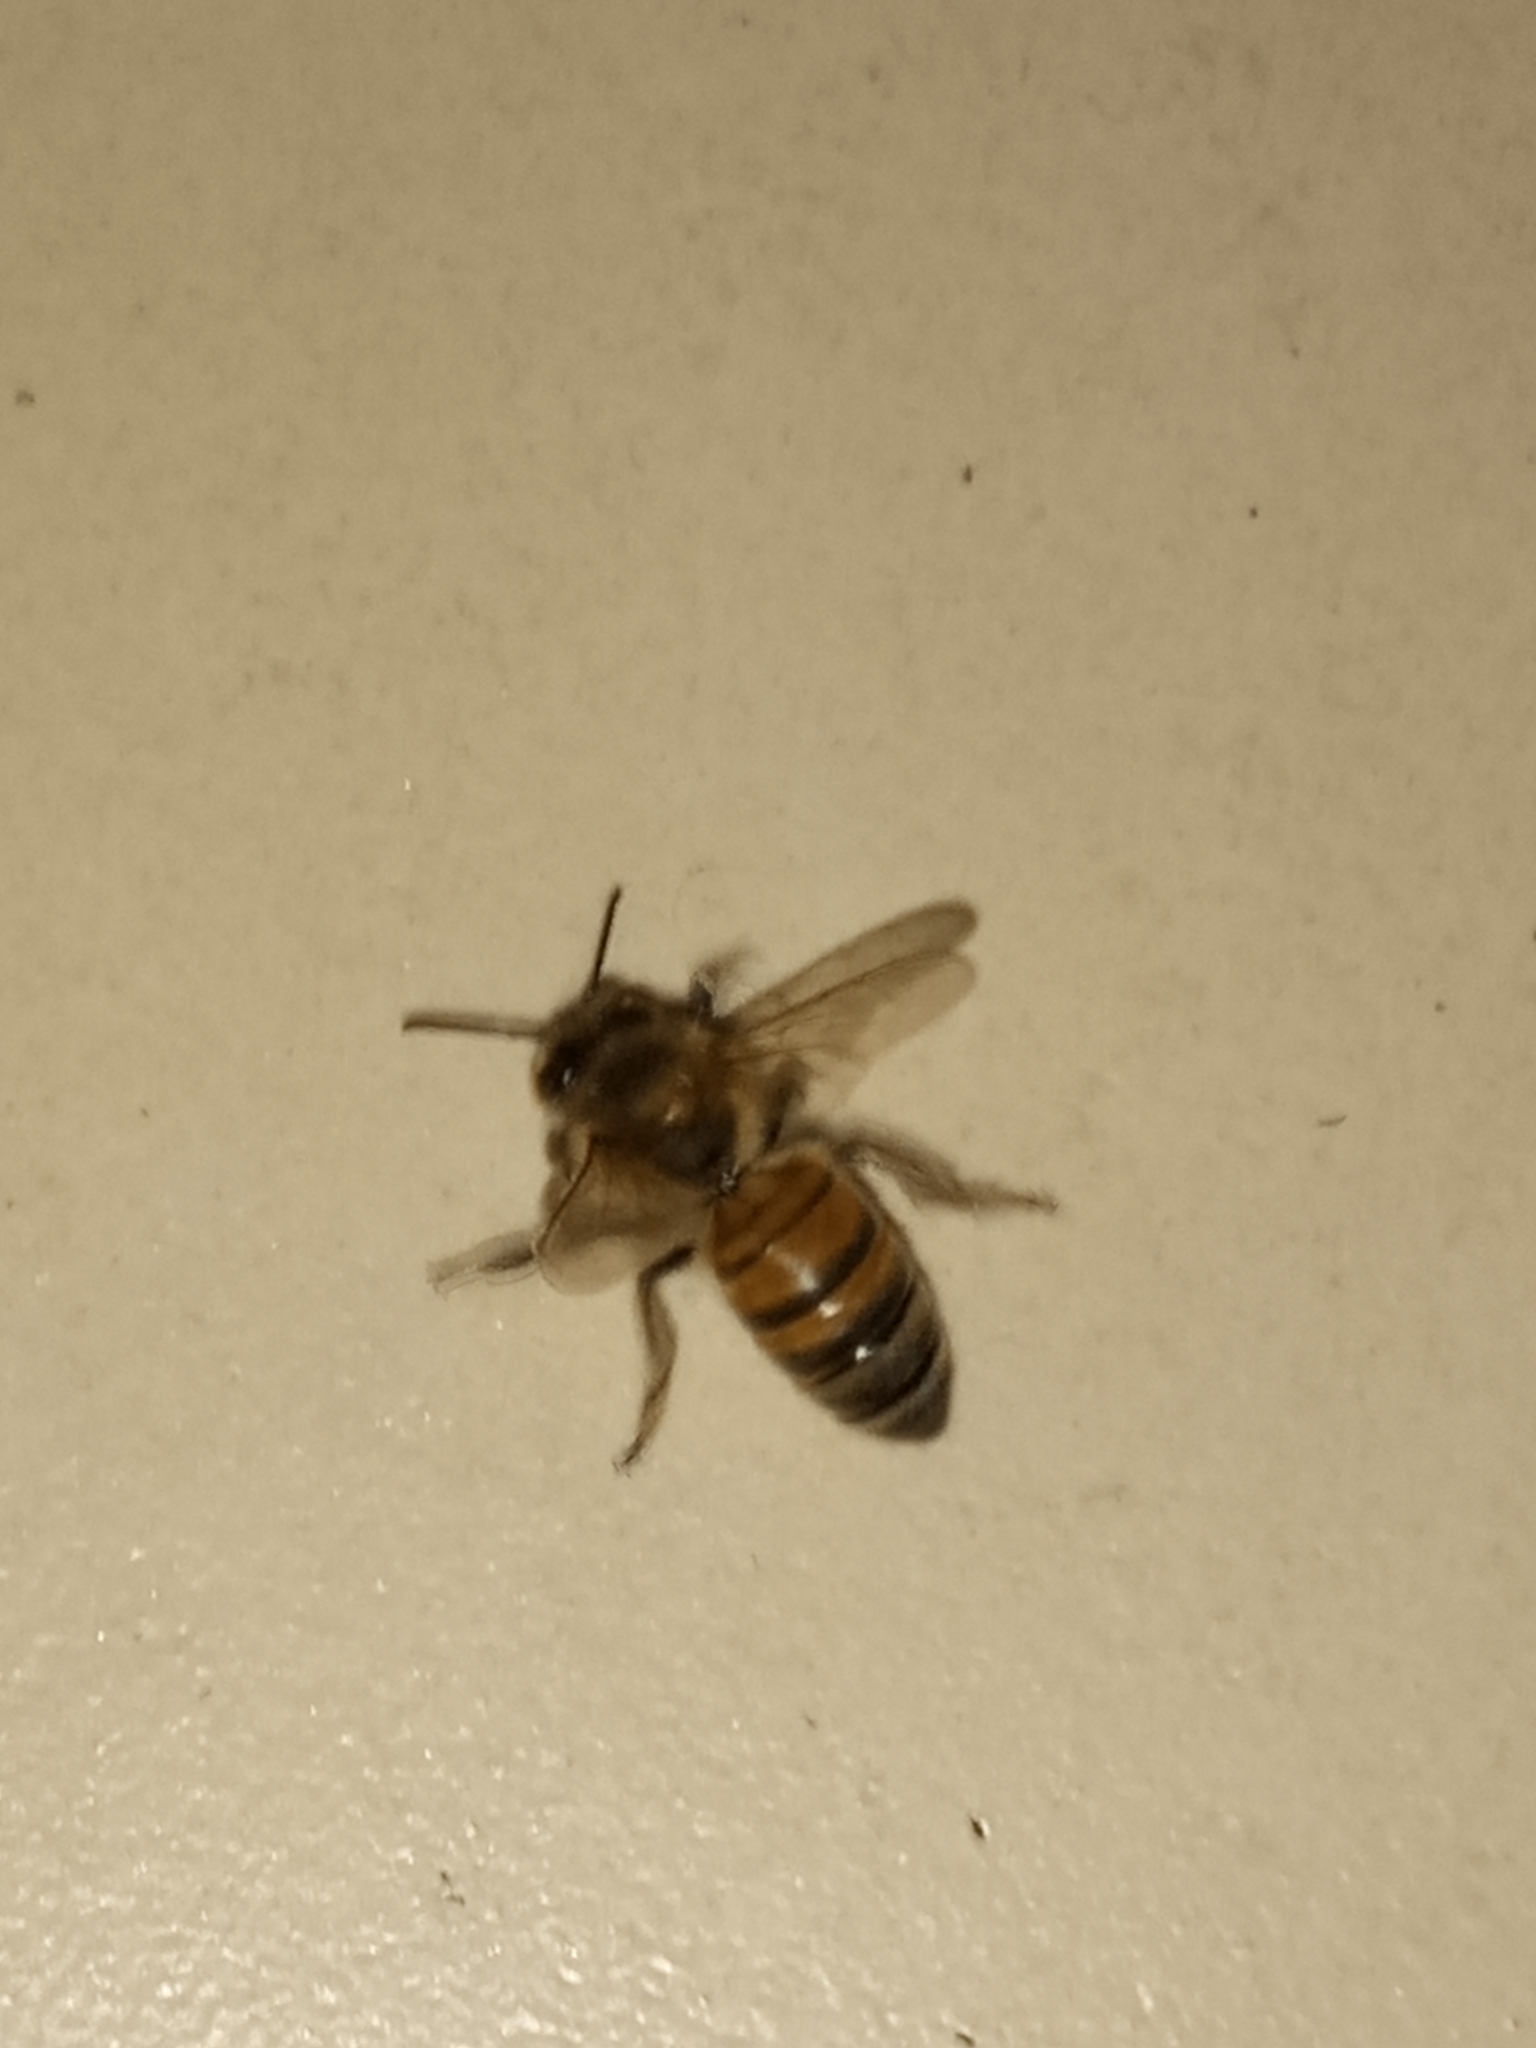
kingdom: Animalia
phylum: Arthropoda
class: Insecta
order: Hymenoptera
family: Apidae
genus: Apis
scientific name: Apis mellifera
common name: Honey bee
